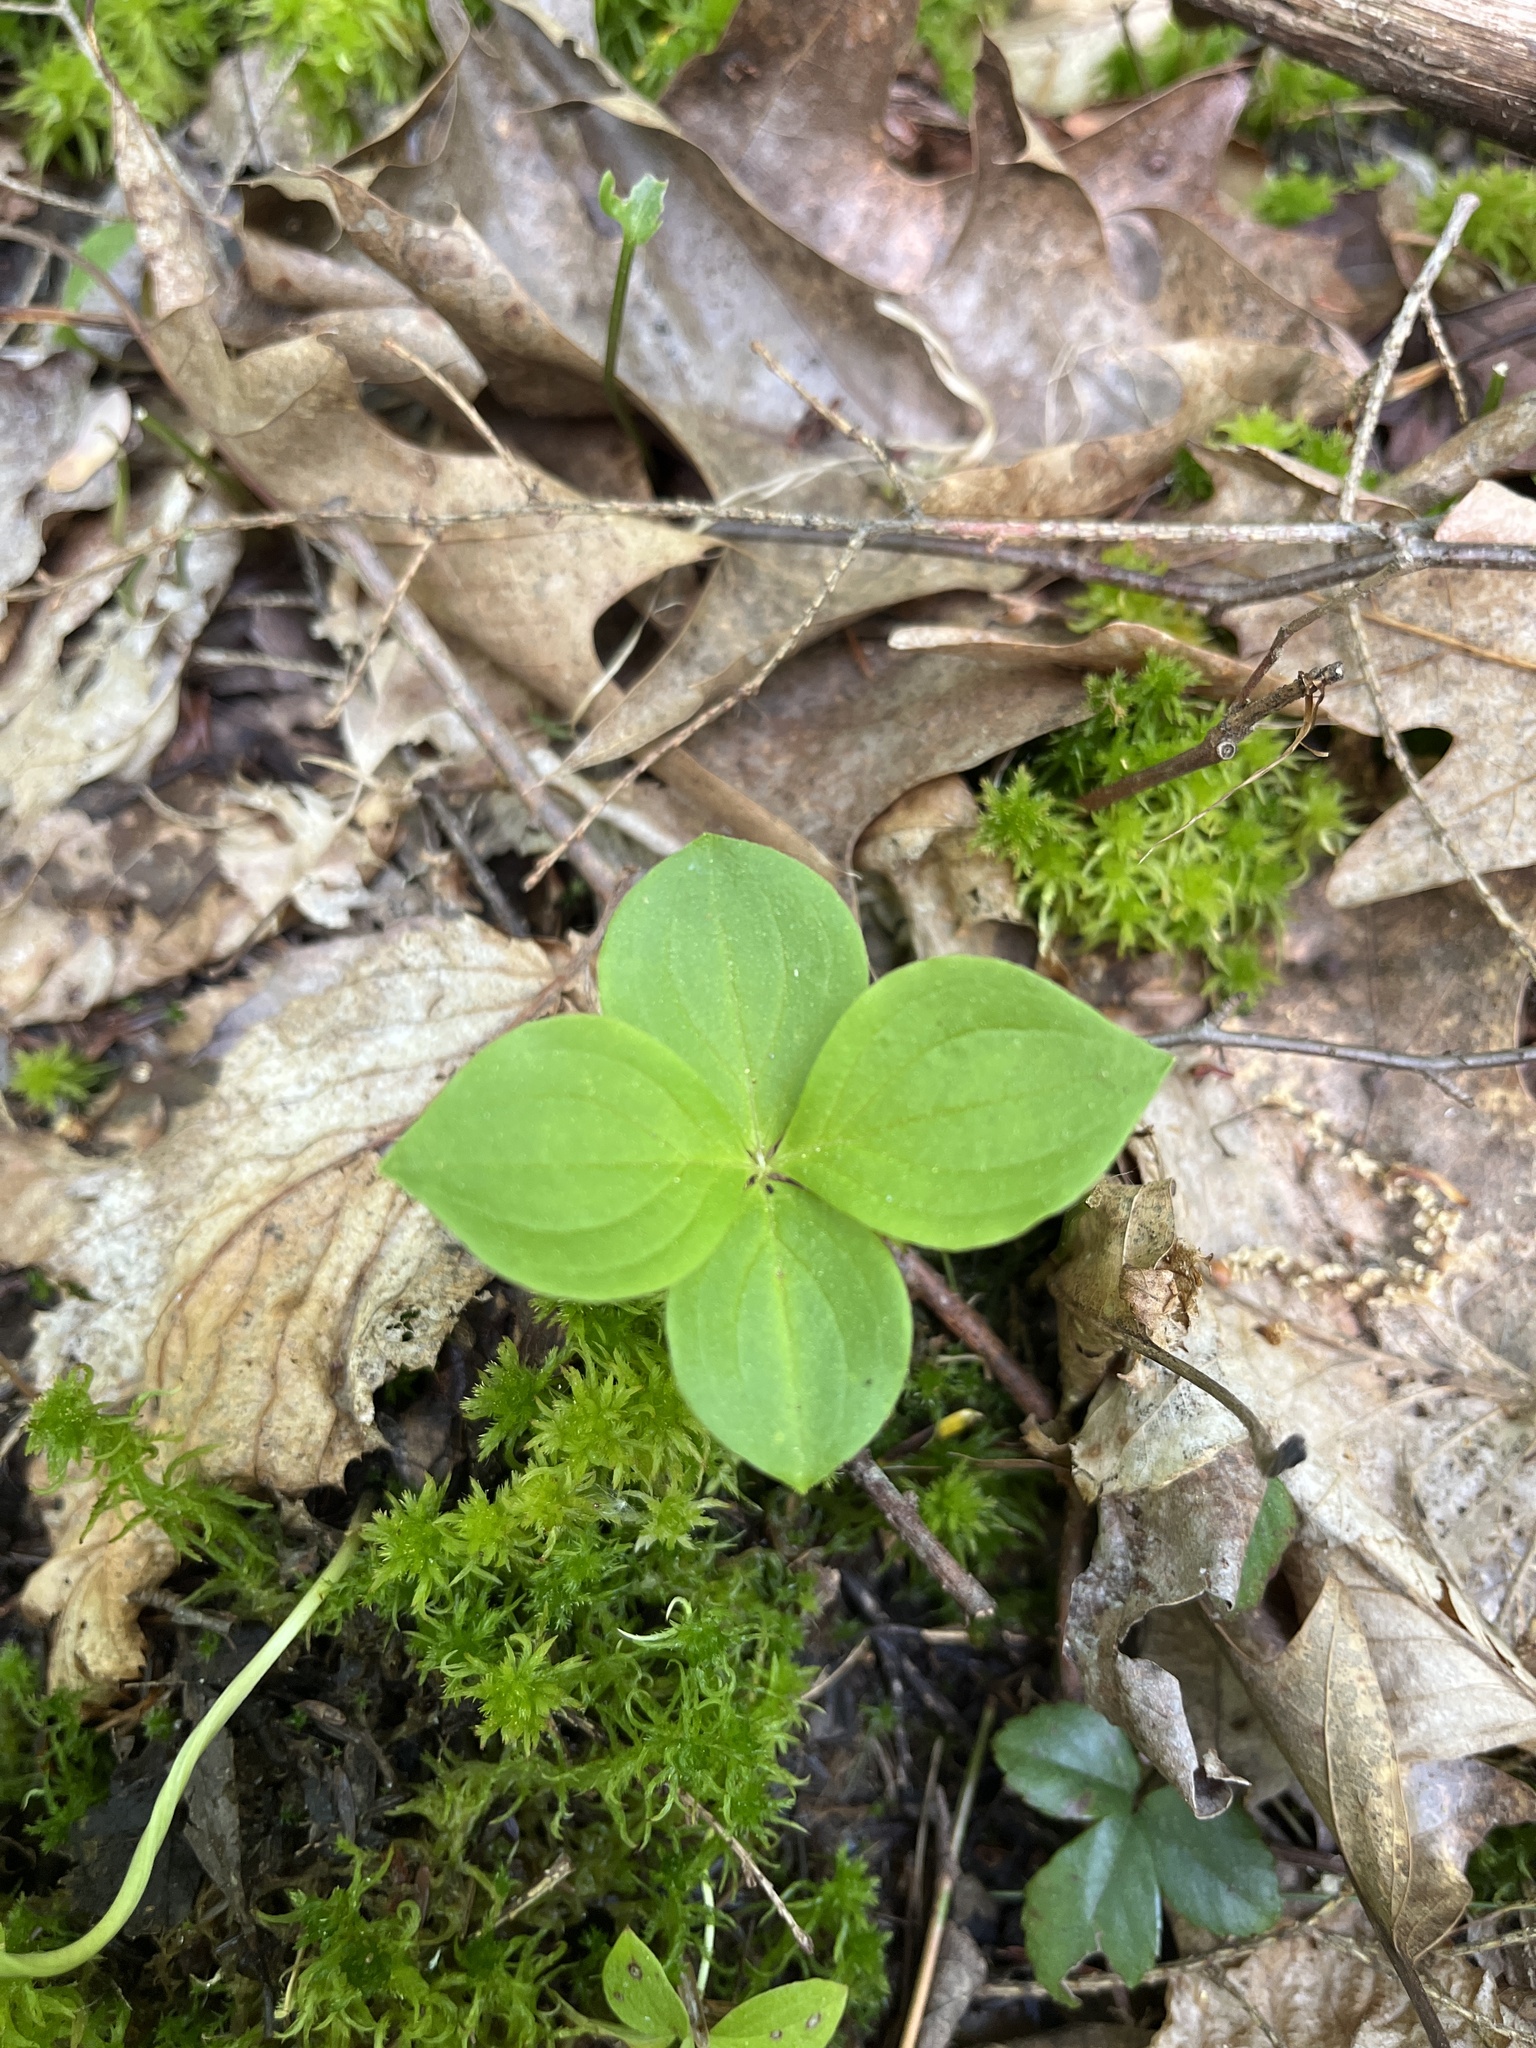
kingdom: Plantae
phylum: Tracheophyta
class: Magnoliopsida
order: Cornales
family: Cornaceae
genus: Cornus
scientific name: Cornus canadensis
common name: Creeping dogwood
